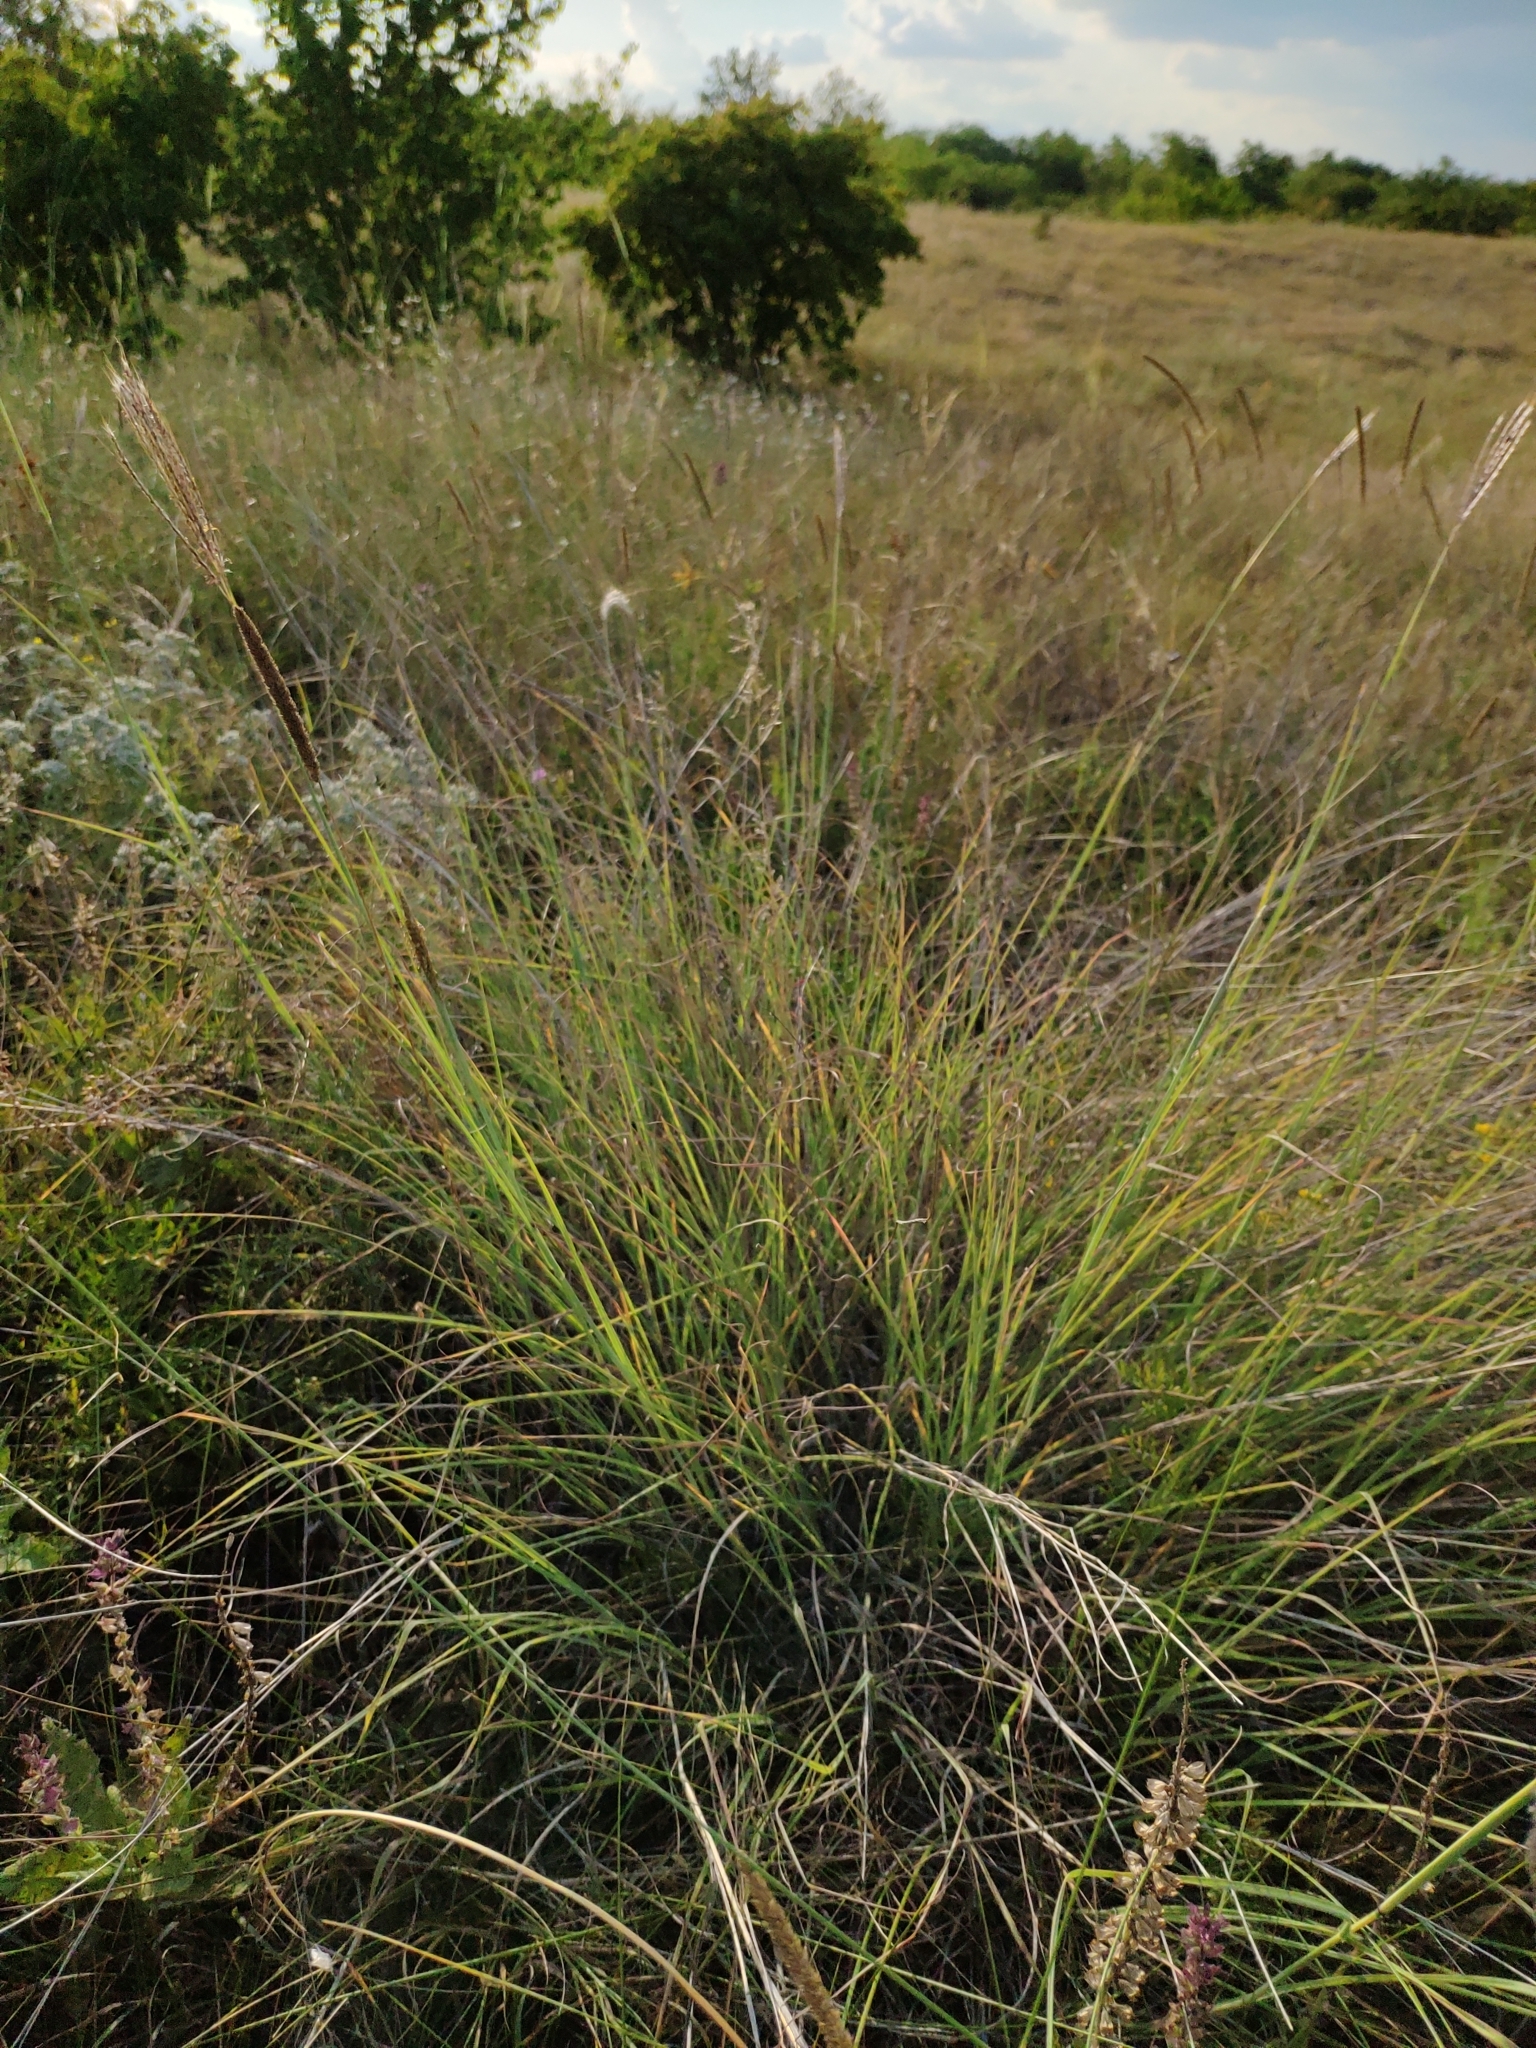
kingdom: Plantae
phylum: Tracheophyta
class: Liliopsida
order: Poales
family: Poaceae
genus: Bothriochloa
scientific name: Bothriochloa ischaemum
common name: Yellow bluestem
